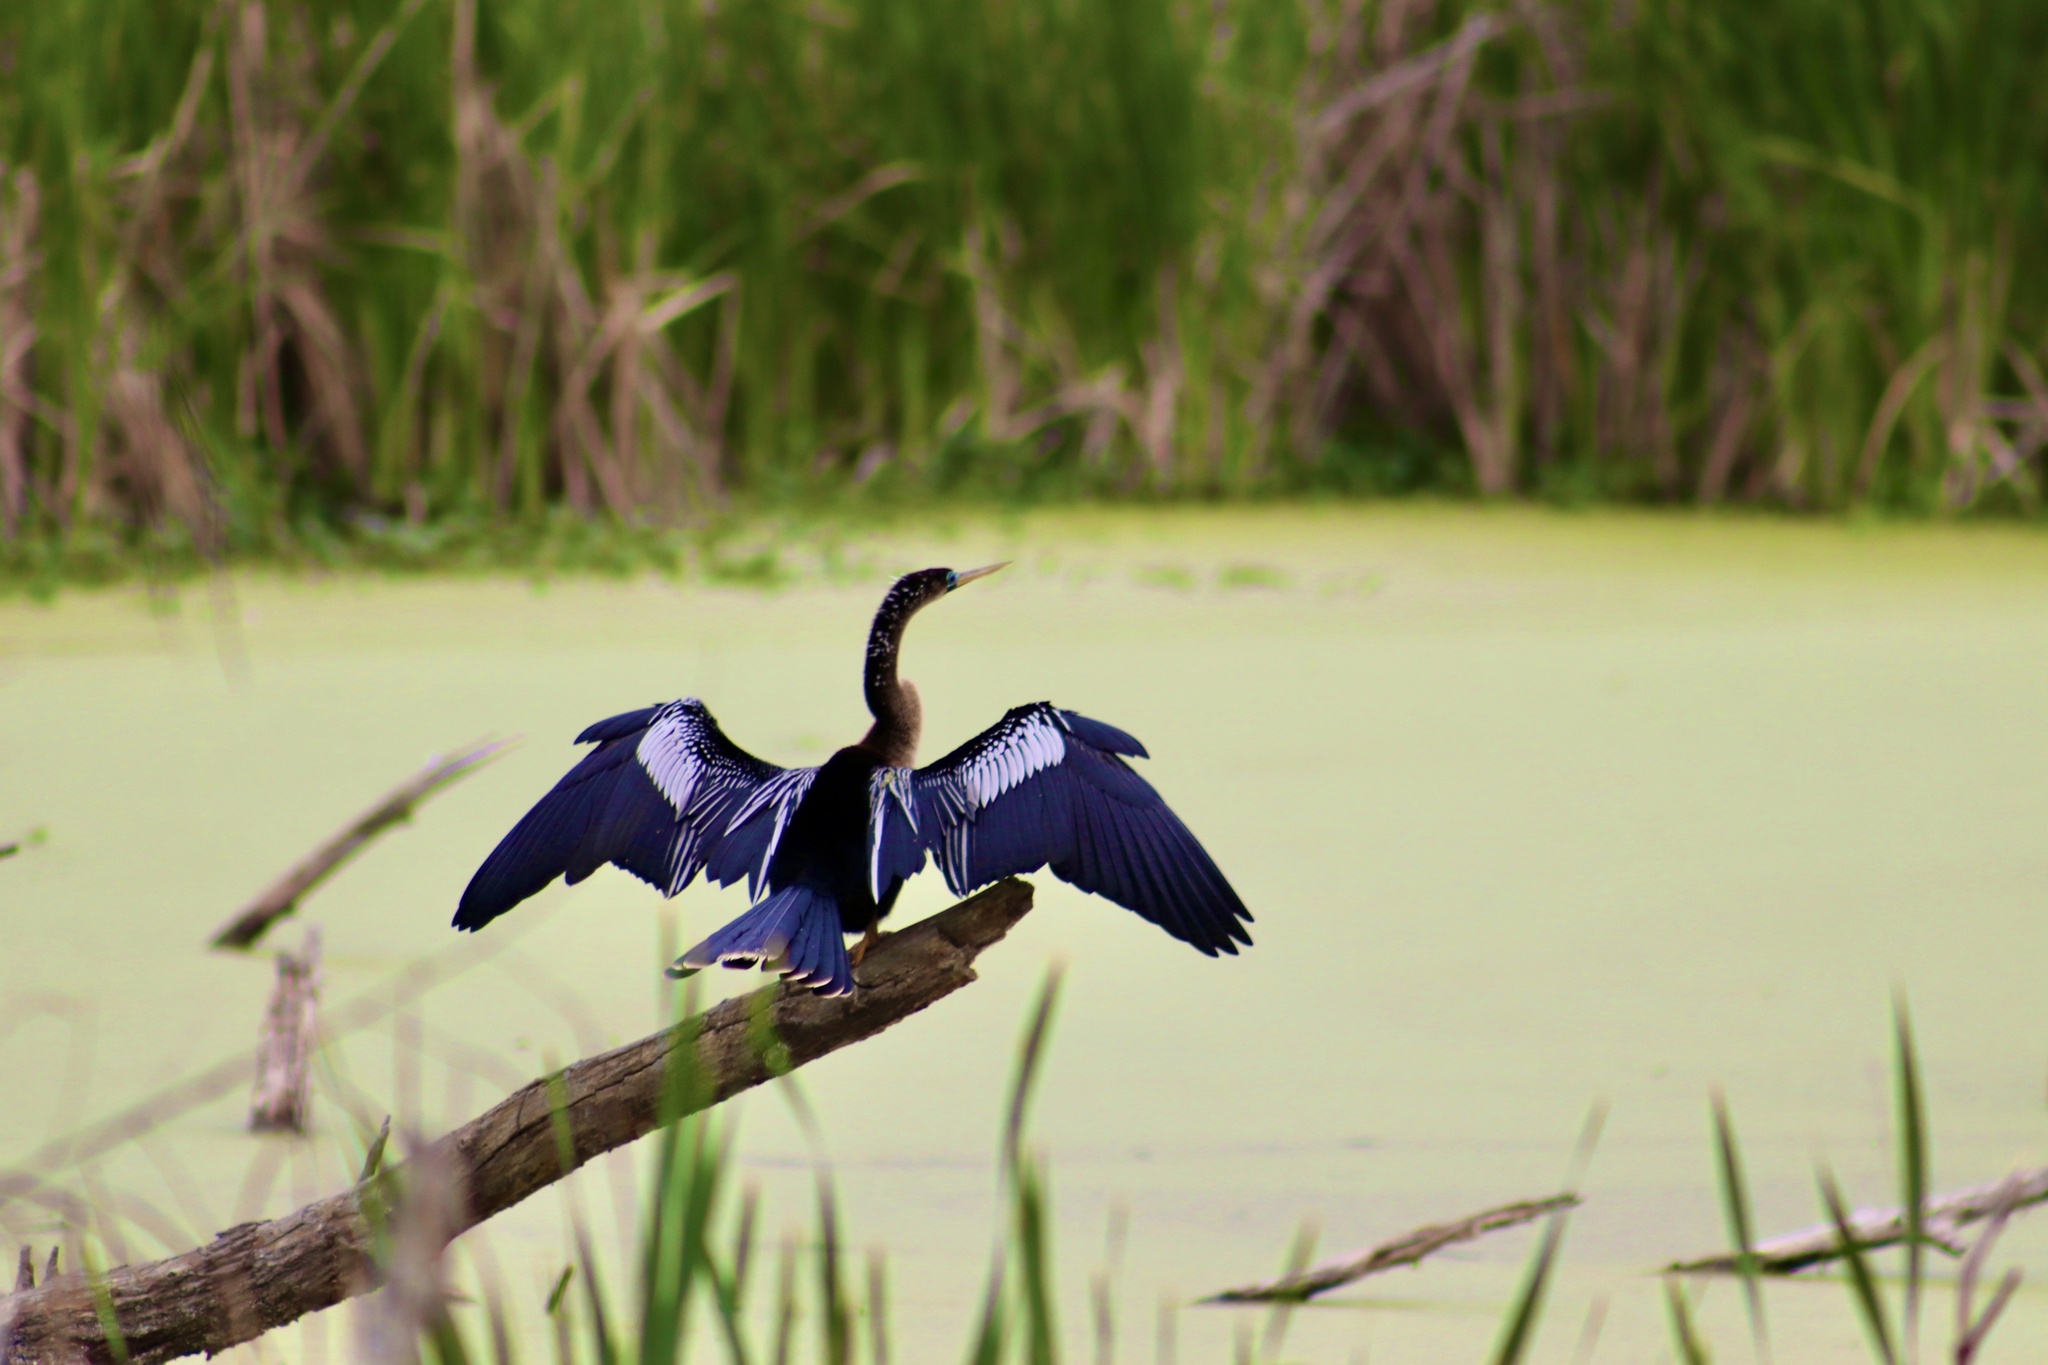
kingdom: Animalia
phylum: Chordata
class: Aves
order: Suliformes
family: Anhingidae
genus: Anhinga
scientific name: Anhinga anhinga
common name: Anhinga
